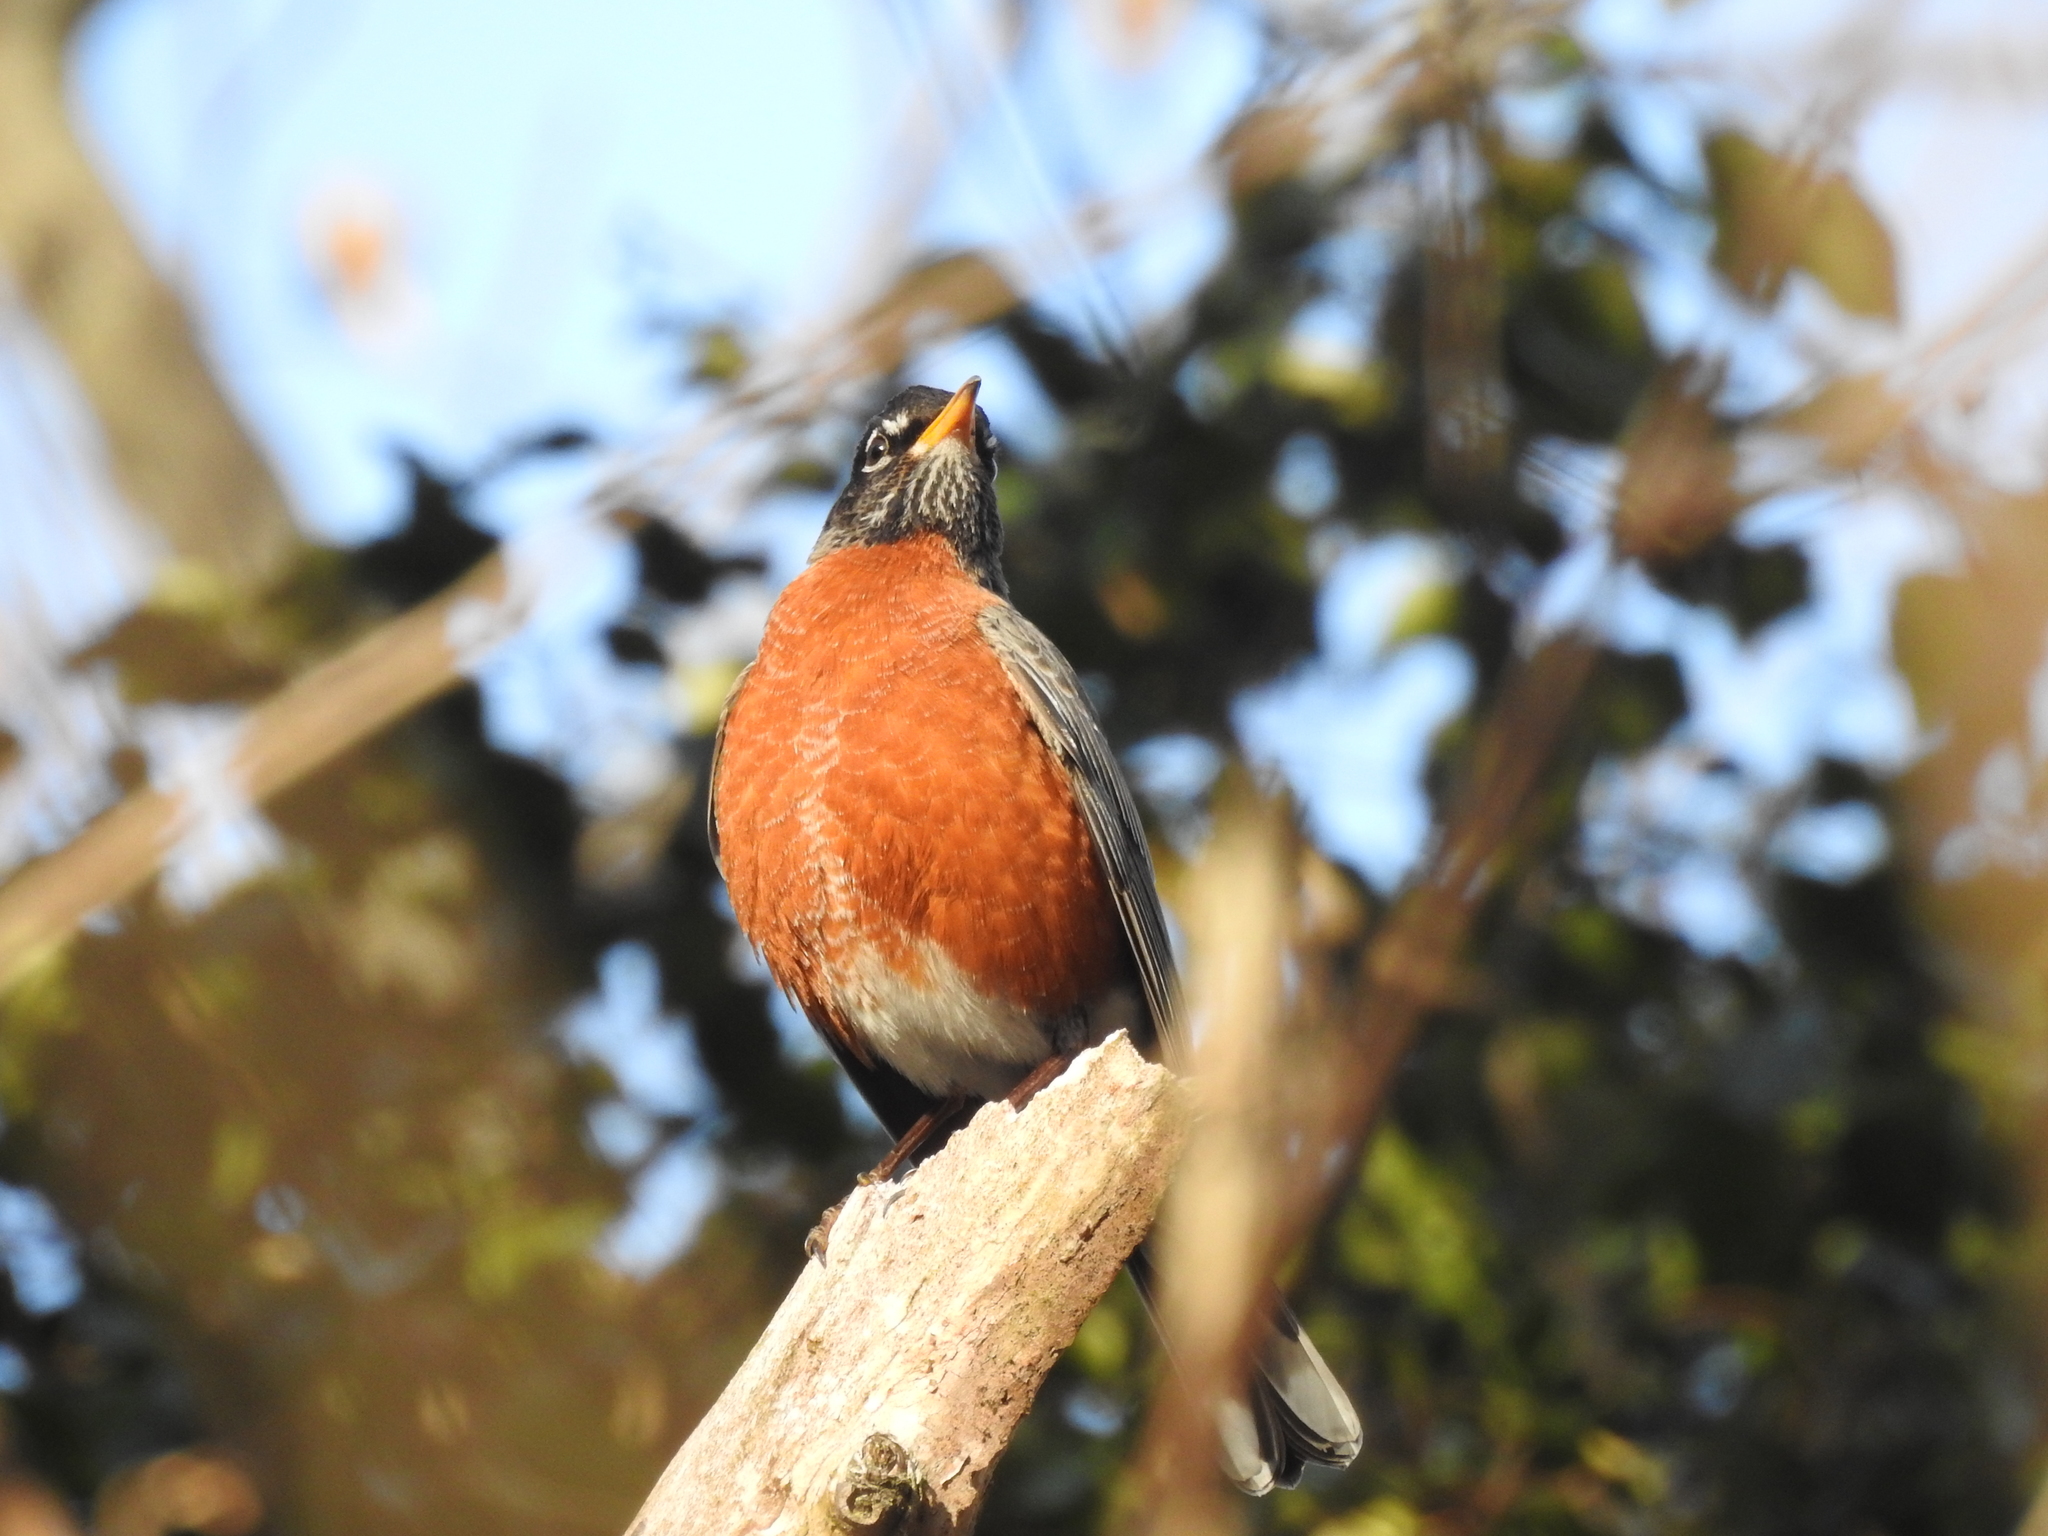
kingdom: Animalia
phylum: Chordata
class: Aves
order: Passeriformes
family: Turdidae
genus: Turdus
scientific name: Turdus migratorius
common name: American robin
